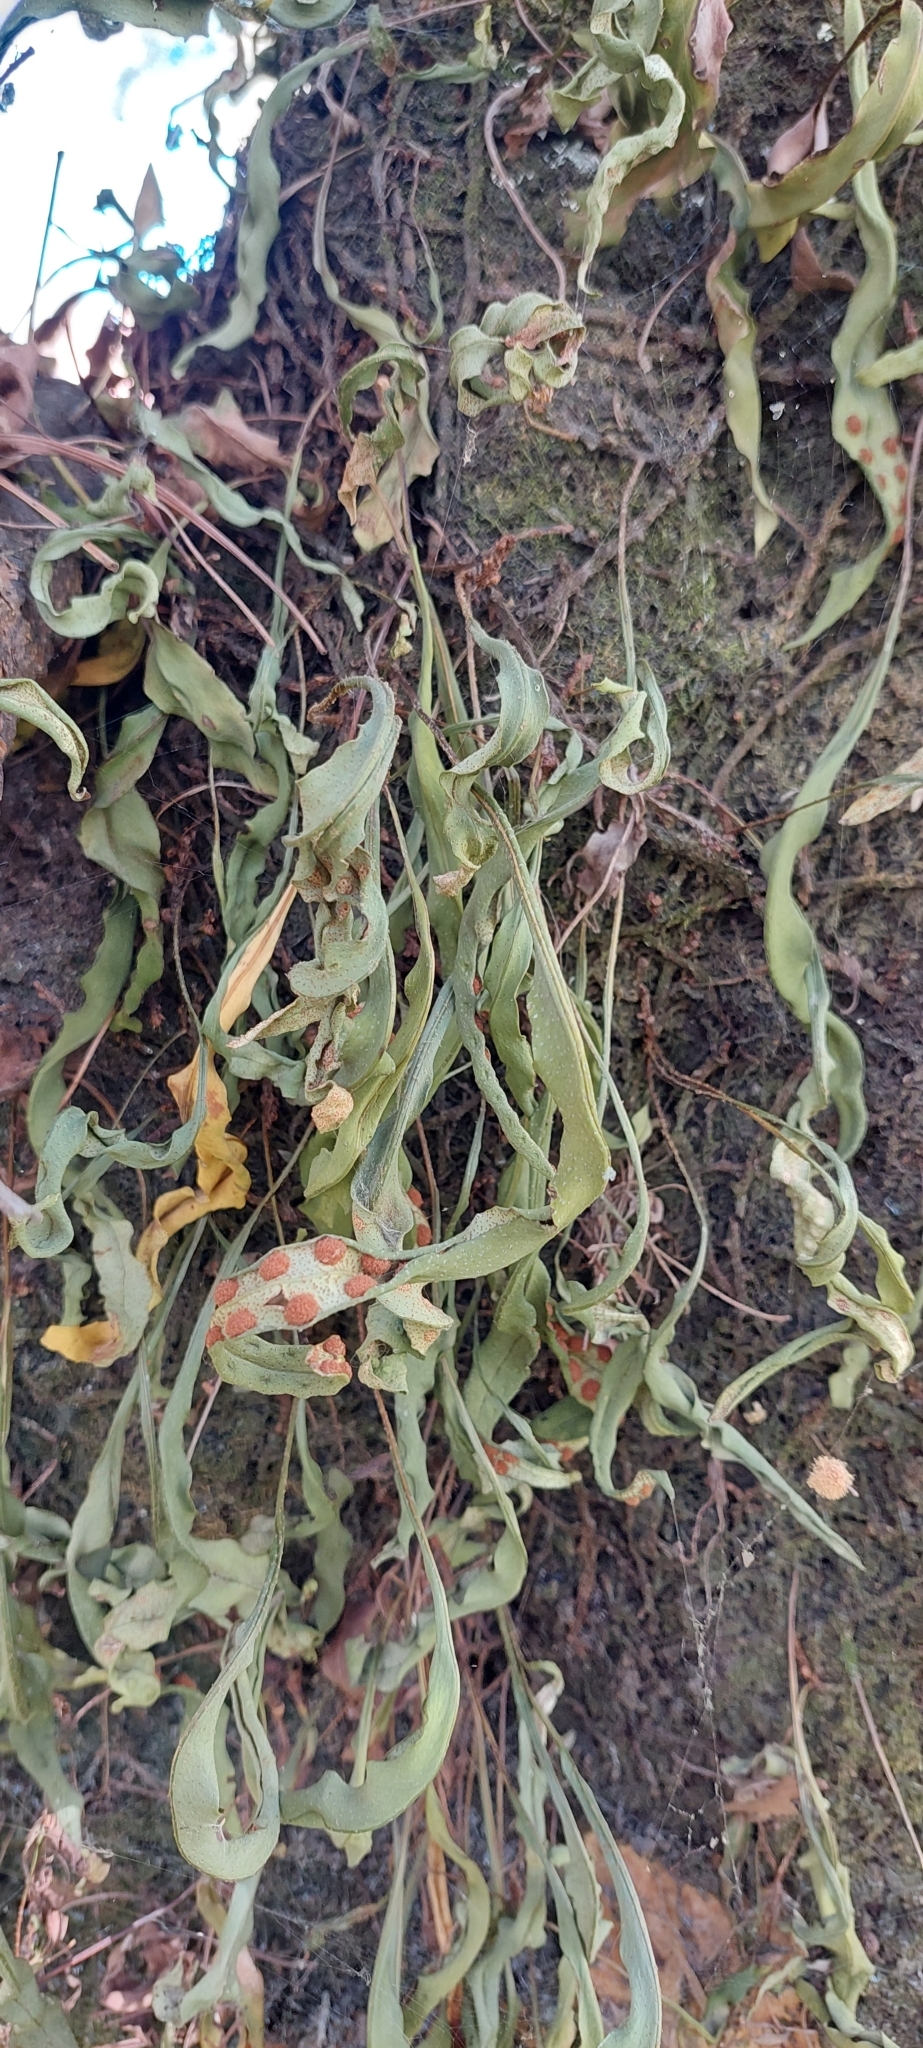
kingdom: Plantae
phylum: Tracheophyta
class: Polypodiopsida
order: Polypodiales
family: Polypodiaceae
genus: Pleopeltis
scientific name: Pleopeltis macrocarpa
